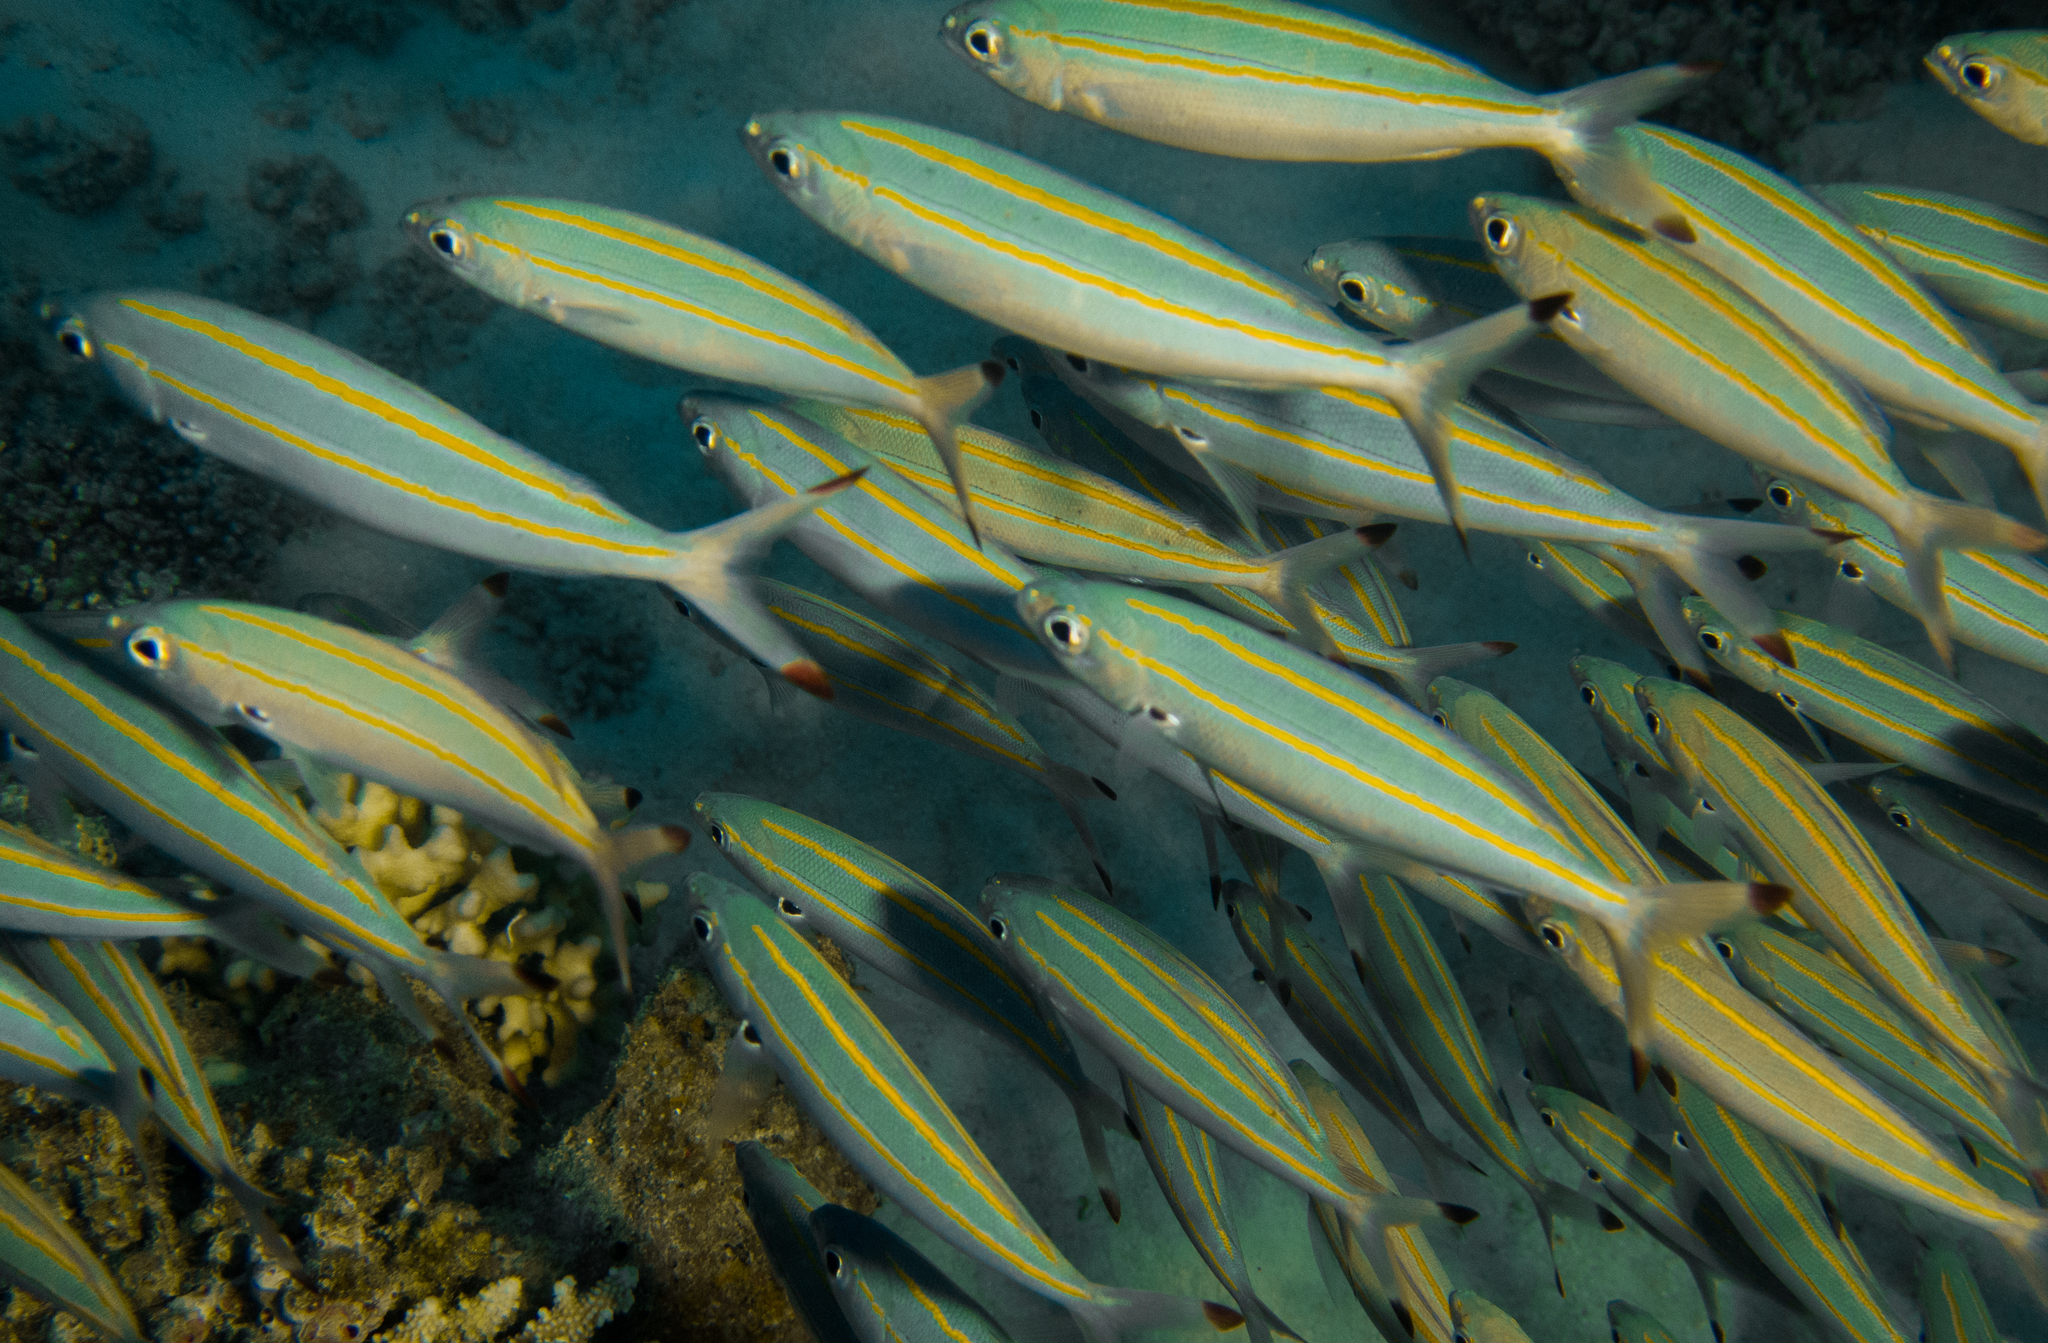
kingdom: Animalia
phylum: Chordata
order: Perciformes
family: Caesionidae
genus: Pterocaesio
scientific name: Pterocaesio digramma
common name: Double-lined fusilier
